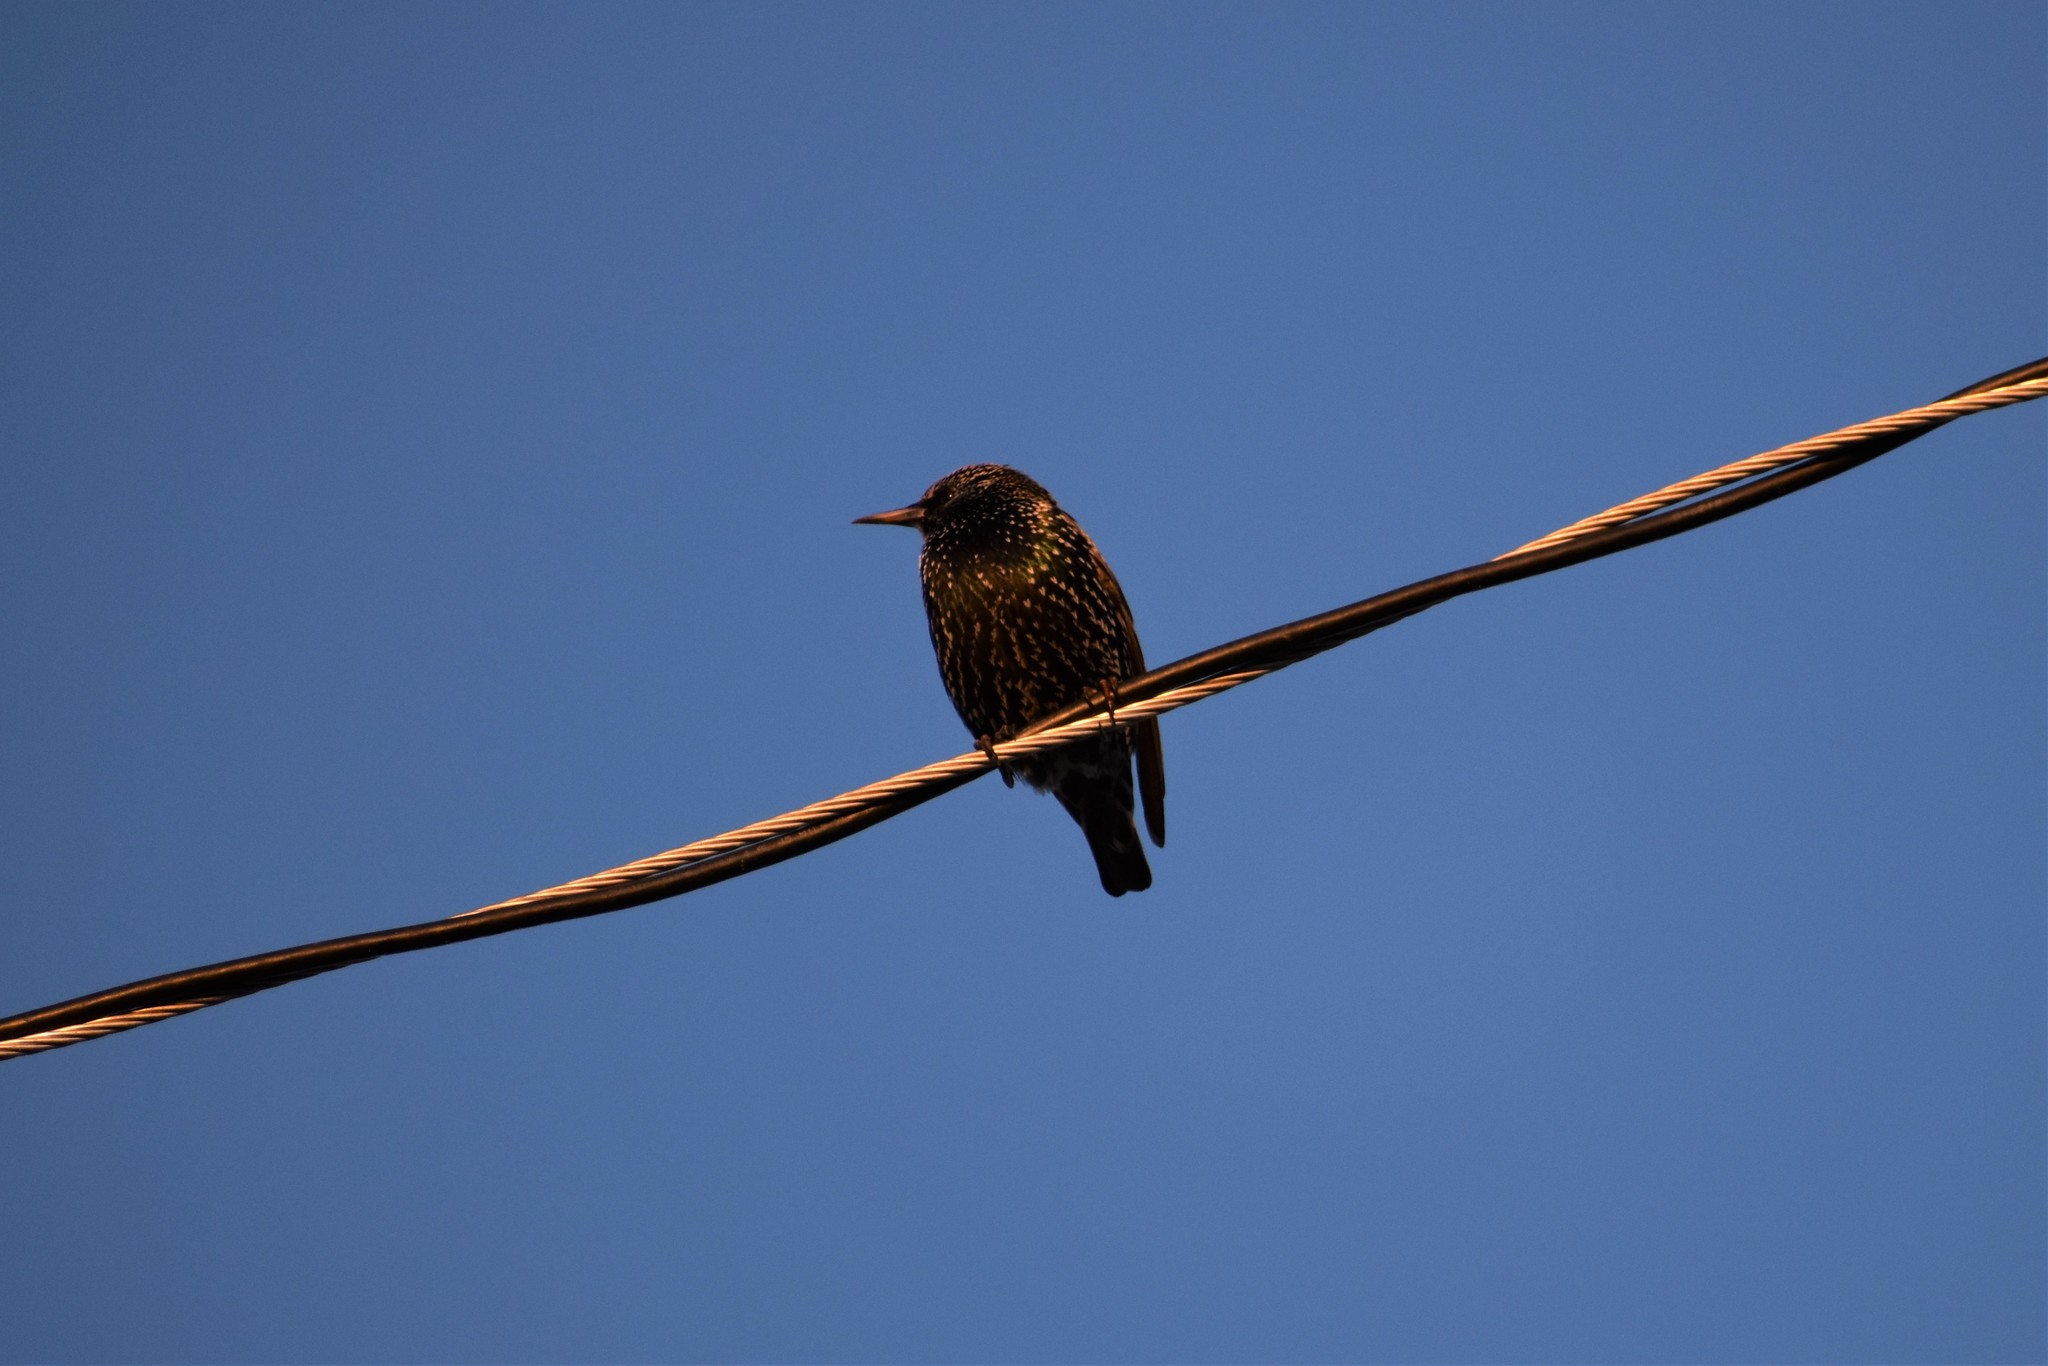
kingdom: Animalia
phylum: Chordata
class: Aves
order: Passeriformes
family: Sturnidae
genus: Sturnus
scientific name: Sturnus vulgaris
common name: Common starling
